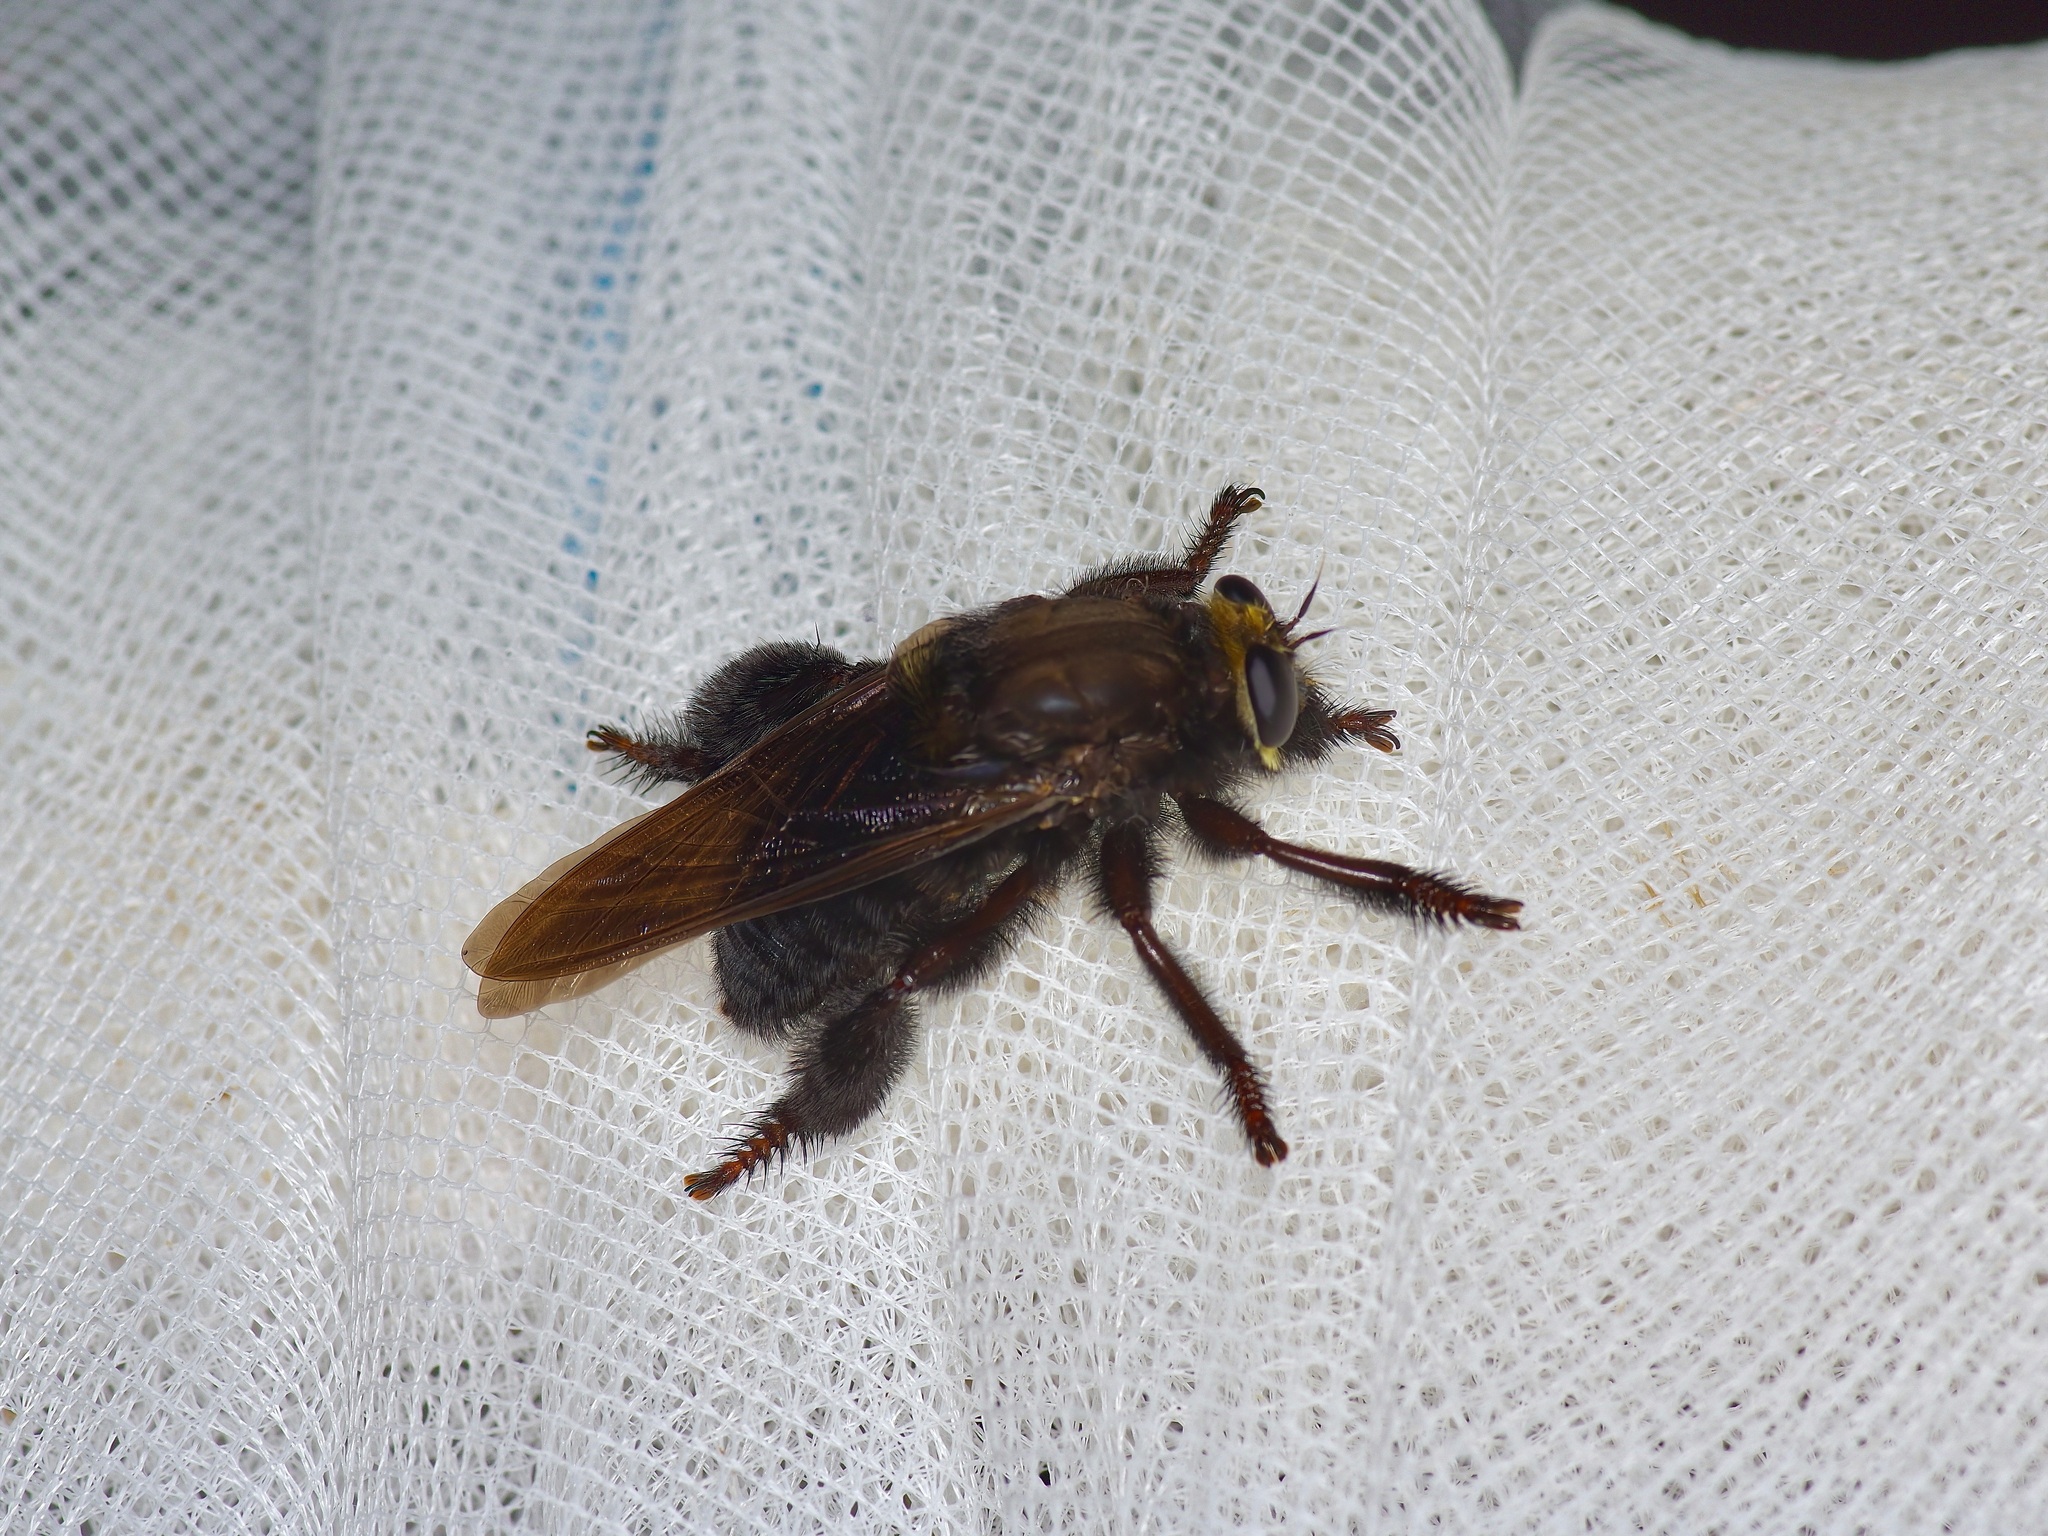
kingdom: Animalia
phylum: Arthropoda
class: Insecta
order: Diptera
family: Asilidae
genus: Mallophora
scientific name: Mallophora leschenaultii
